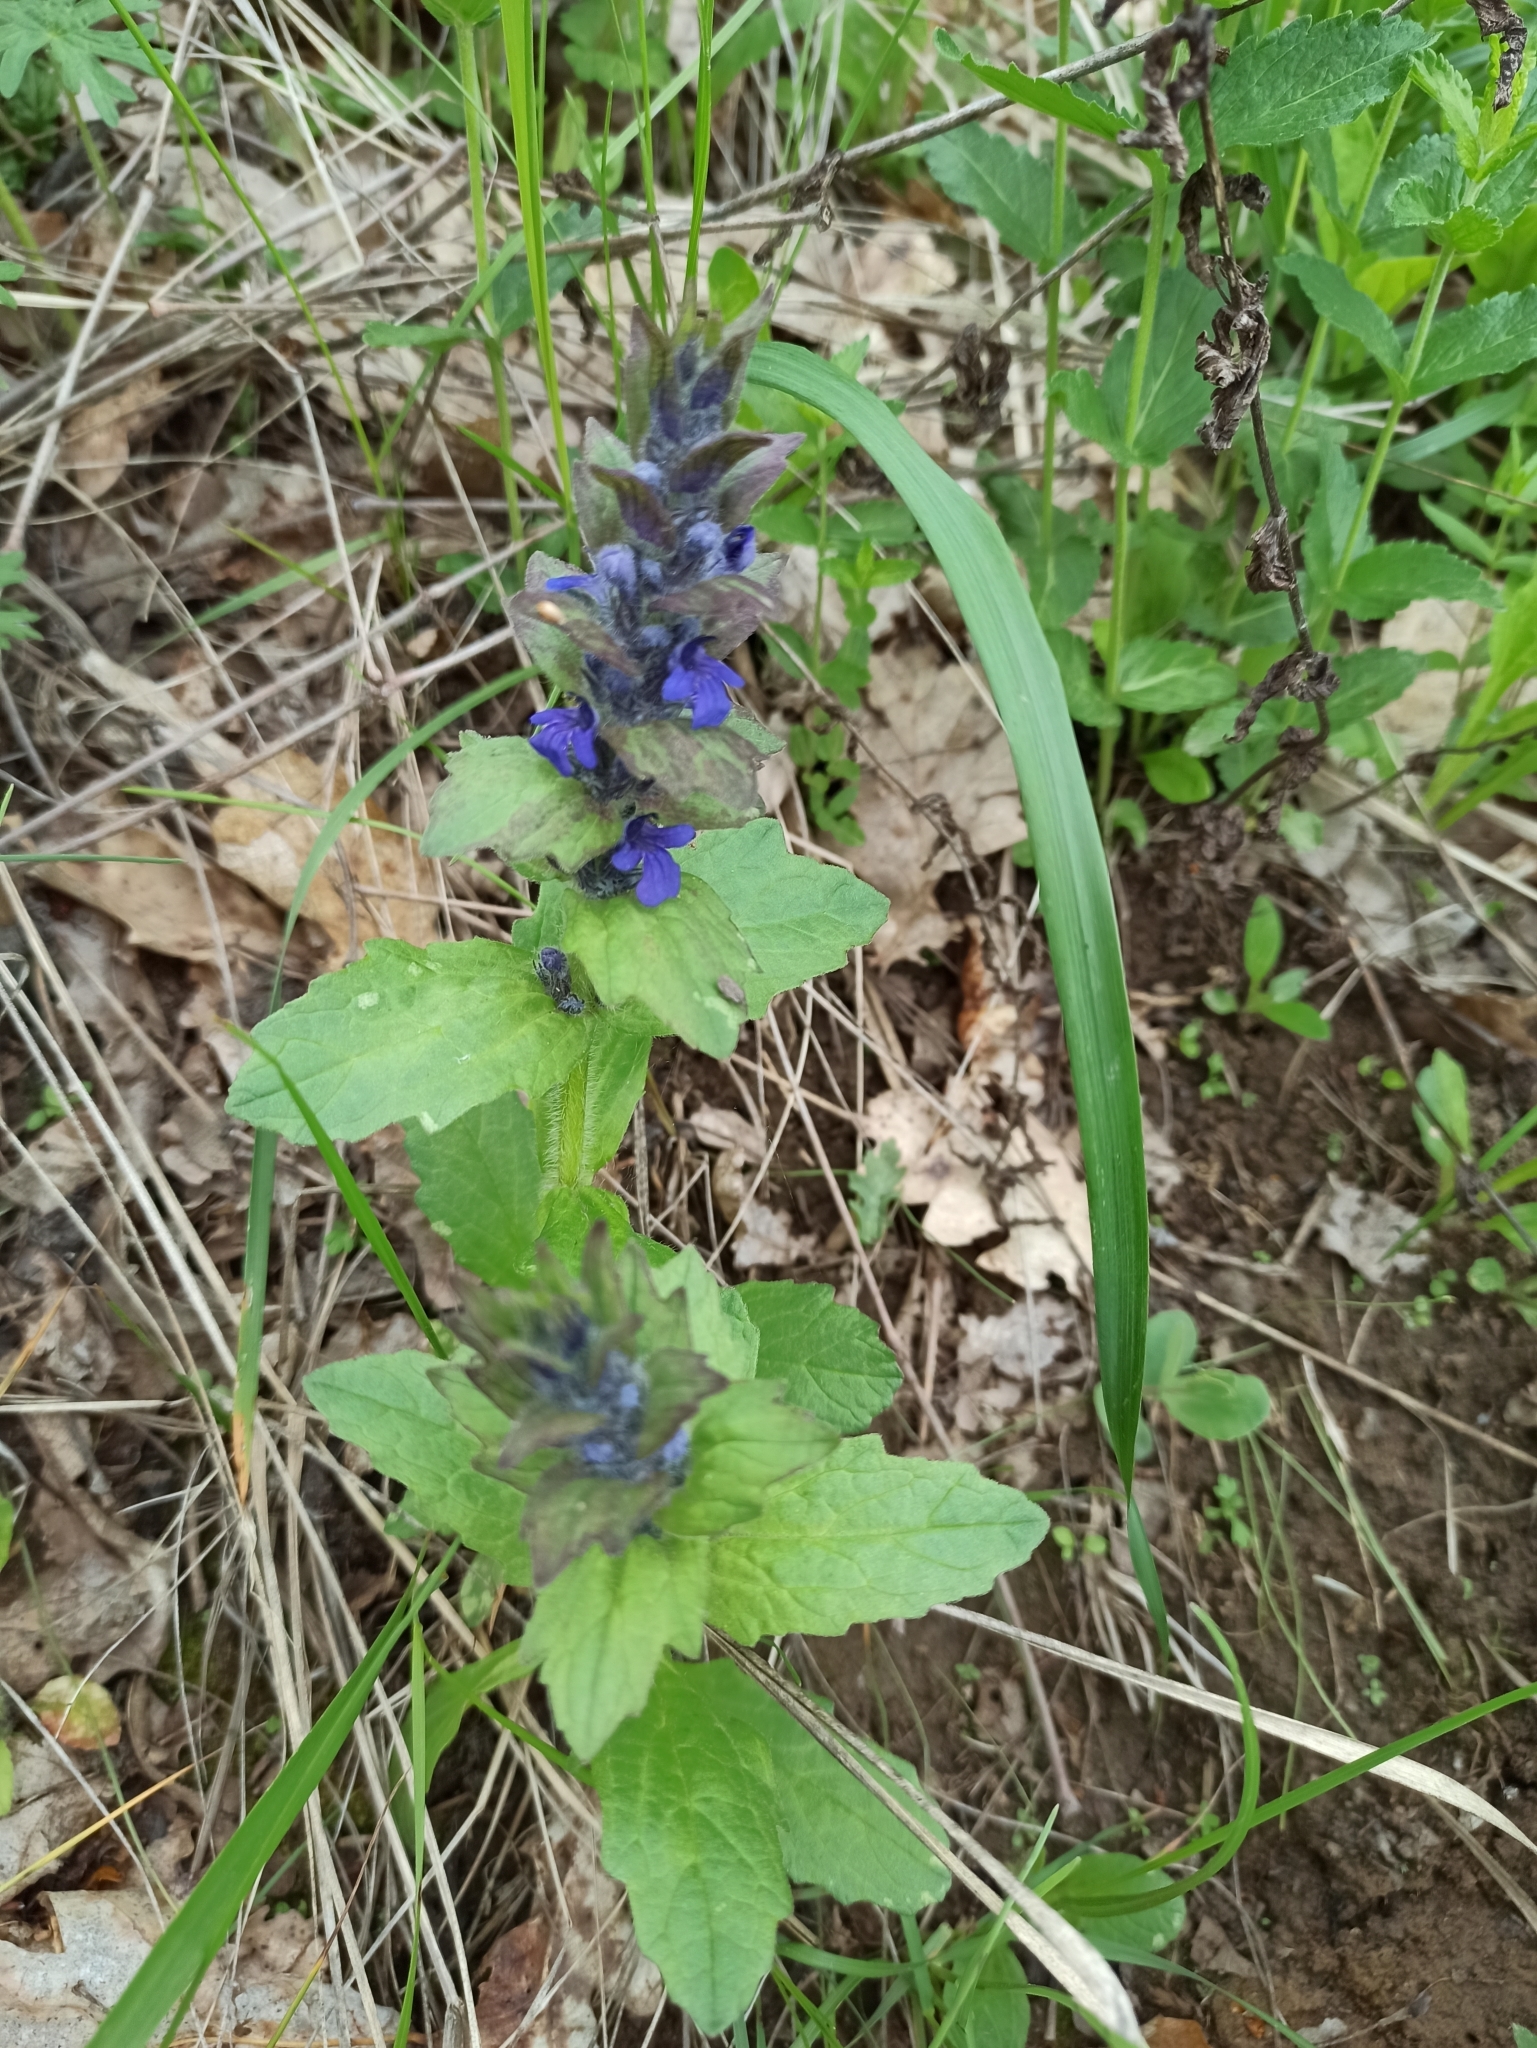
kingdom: Plantae
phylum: Tracheophyta
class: Magnoliopsida
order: Lamiales
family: Lamiaceae
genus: Ajuga
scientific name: Ajuga genevensis
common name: Blue bugle
